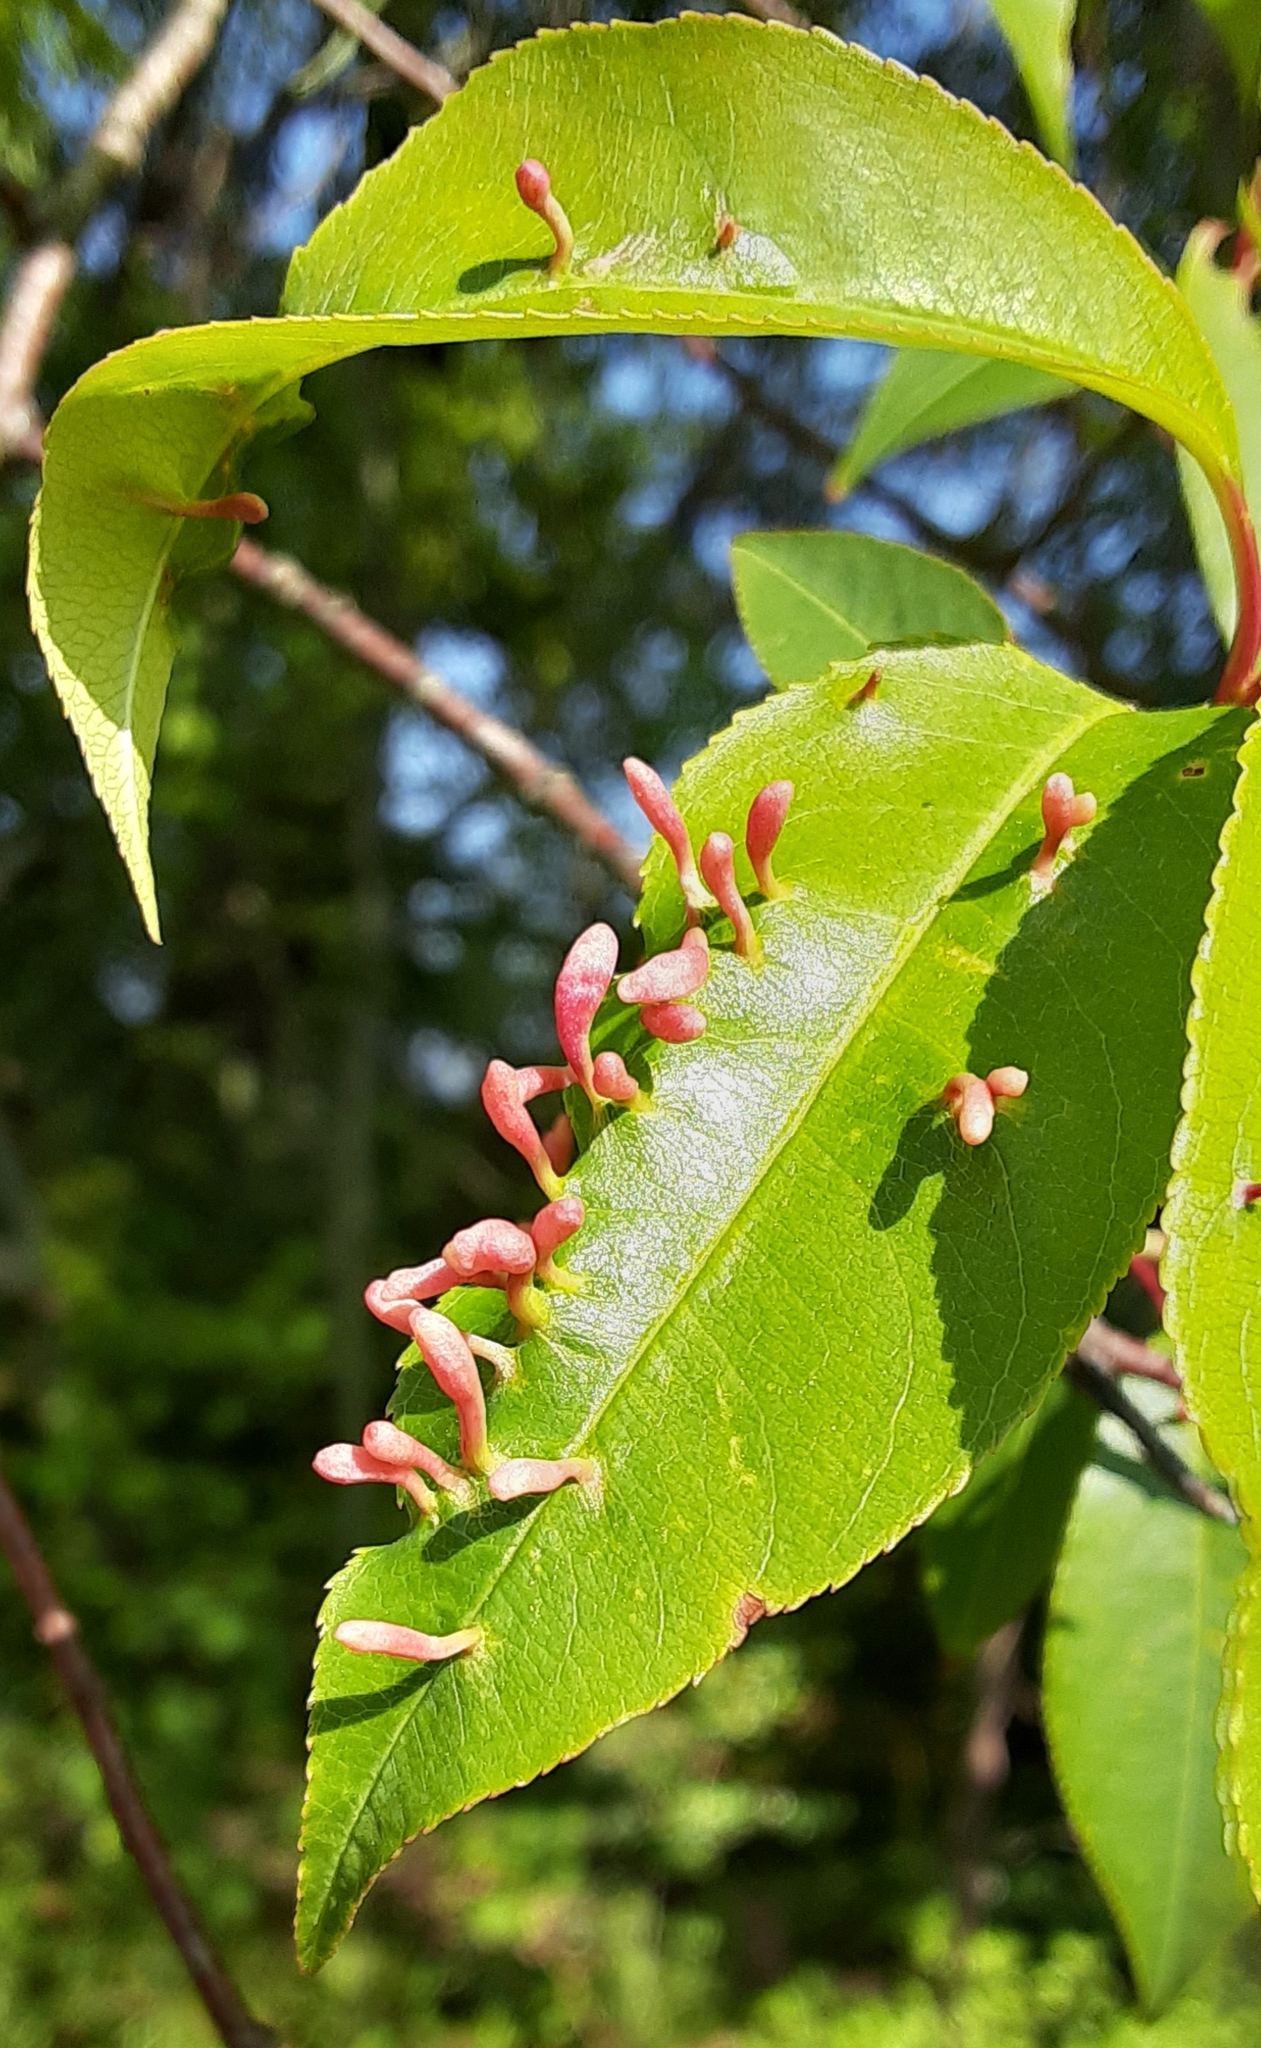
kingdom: Animalia
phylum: Arthropoda
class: Arachnida
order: Trombidiformes
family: Eriophyidae
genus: Eriophyes
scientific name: Eriophyes
